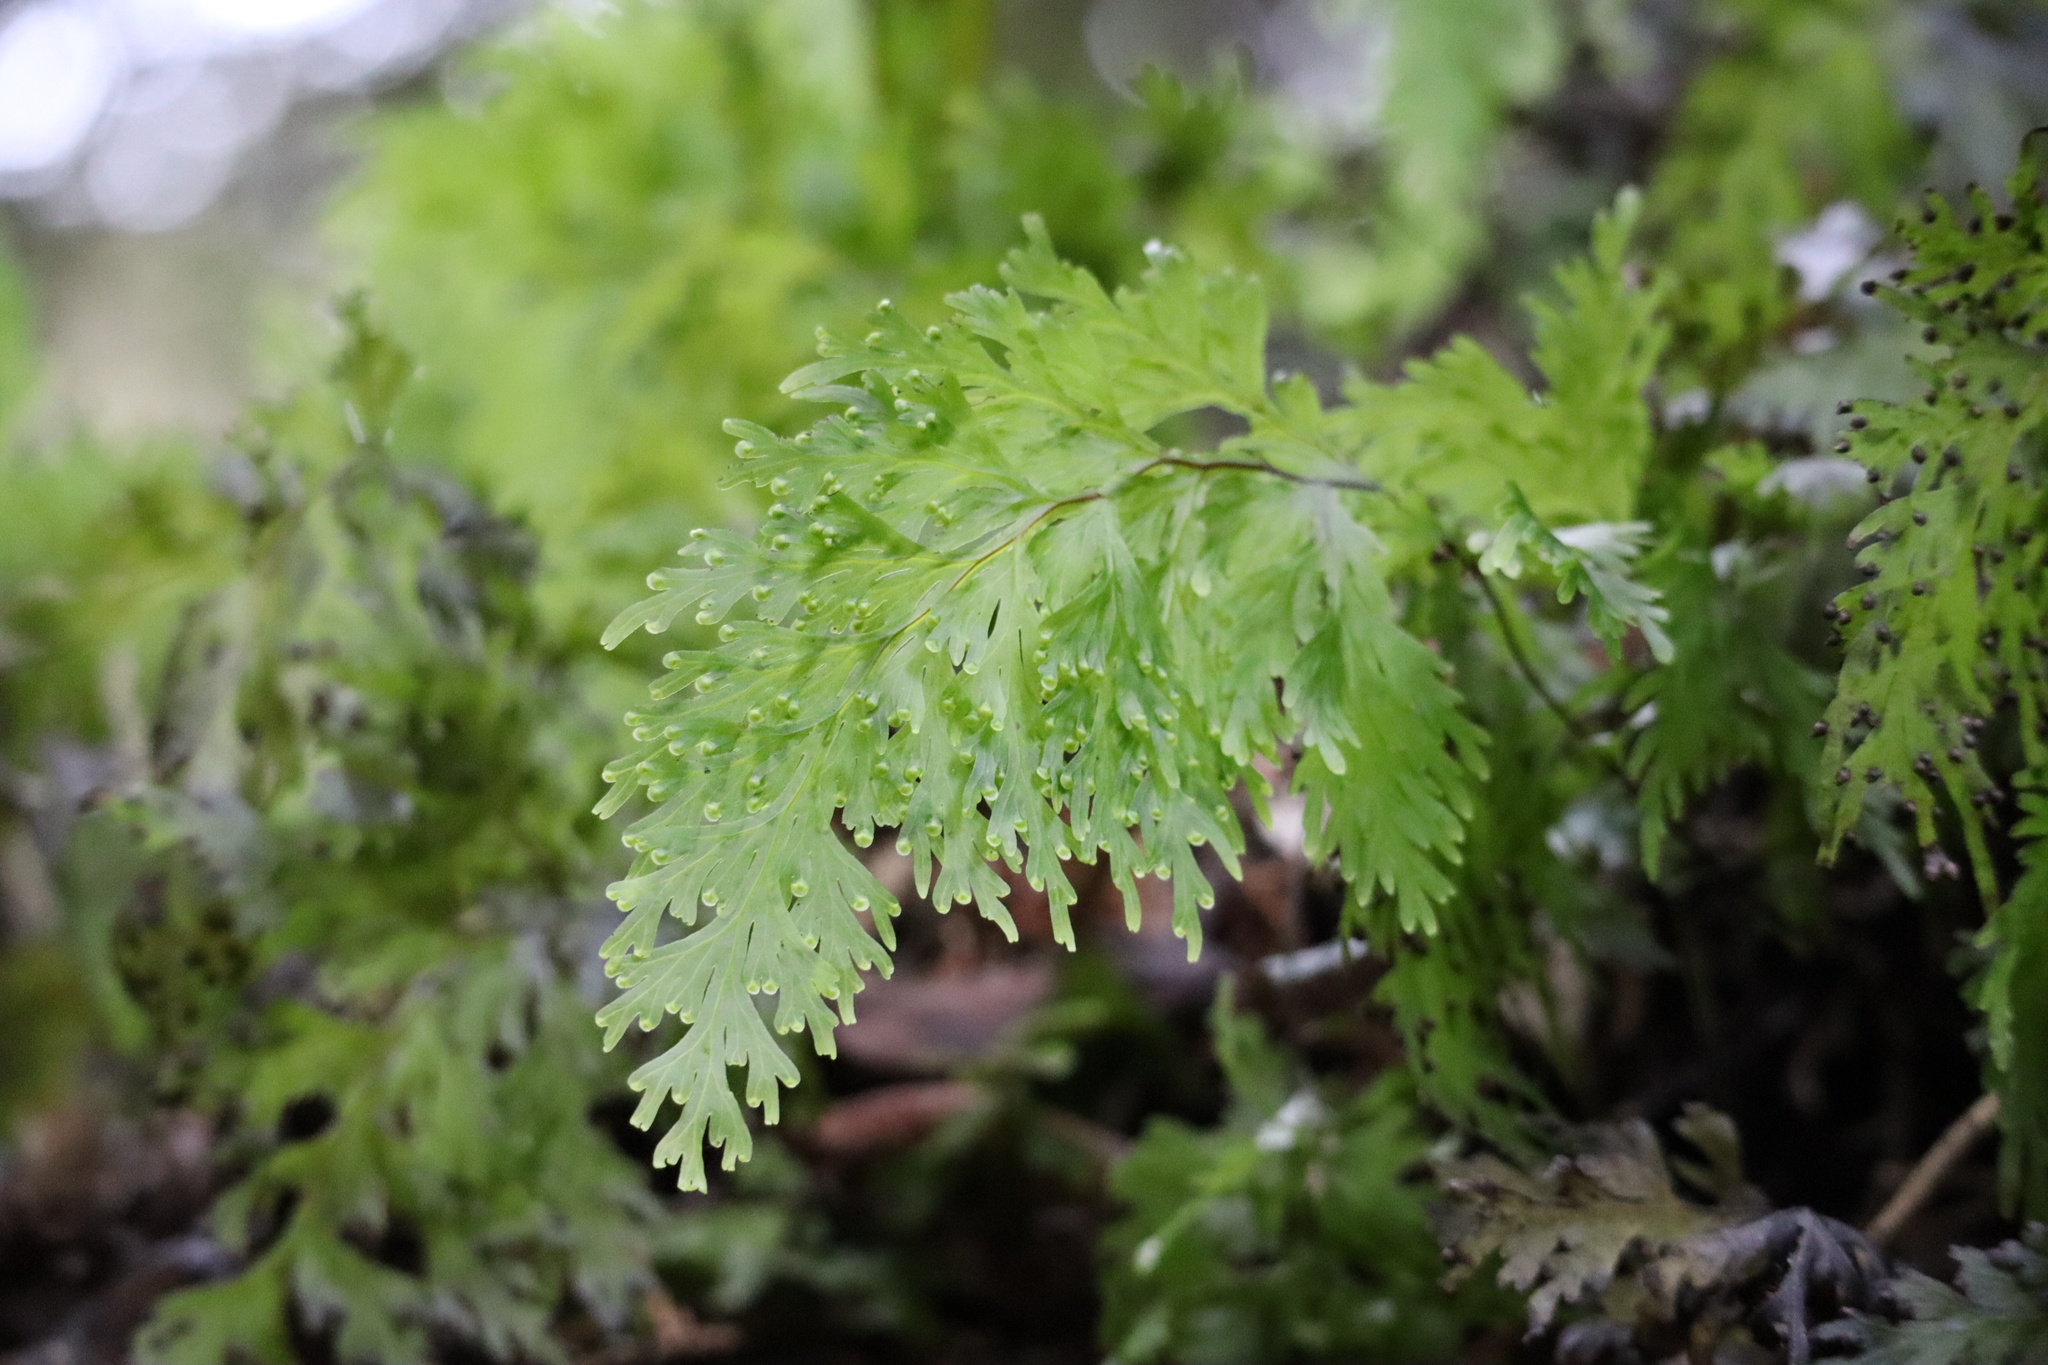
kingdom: Plantae
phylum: Tracheophyta
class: Polypodiopsida
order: Hymenophyllales
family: Hymenophyllaceae
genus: Hymenophyllum
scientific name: Hymenophyllum dilatatum
